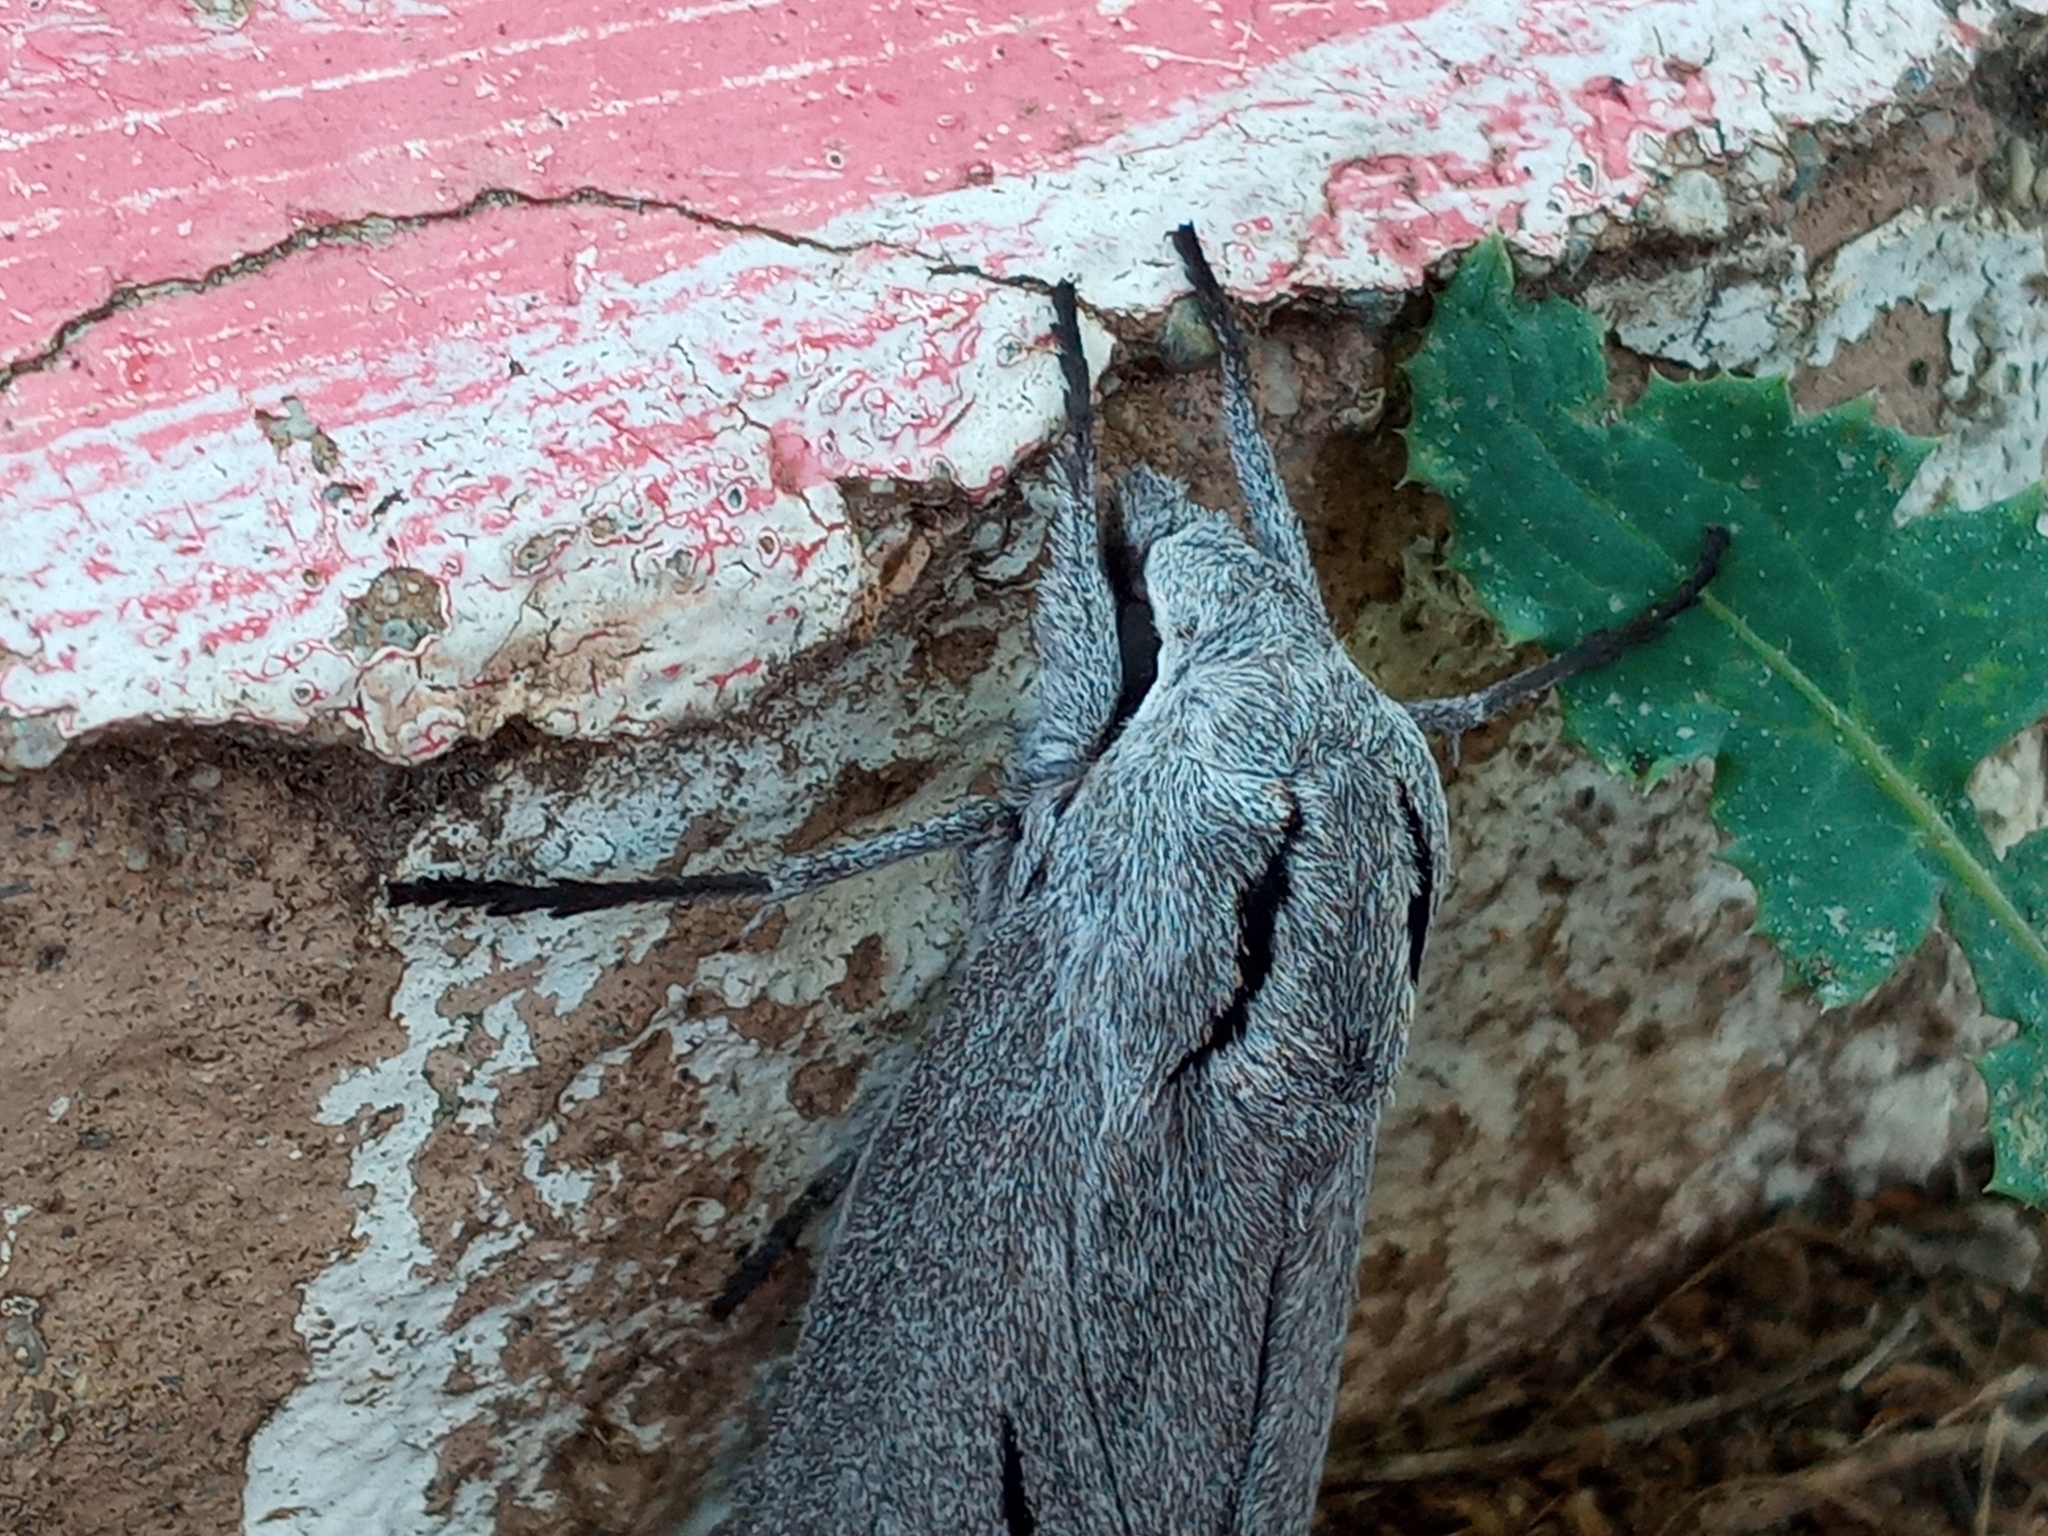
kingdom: Animalia
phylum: Arthropoda
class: Insecta
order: Lepidoptera
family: Sphingidae
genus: Sphinx
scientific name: Sphinx chersis
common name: Great ash sphinx
